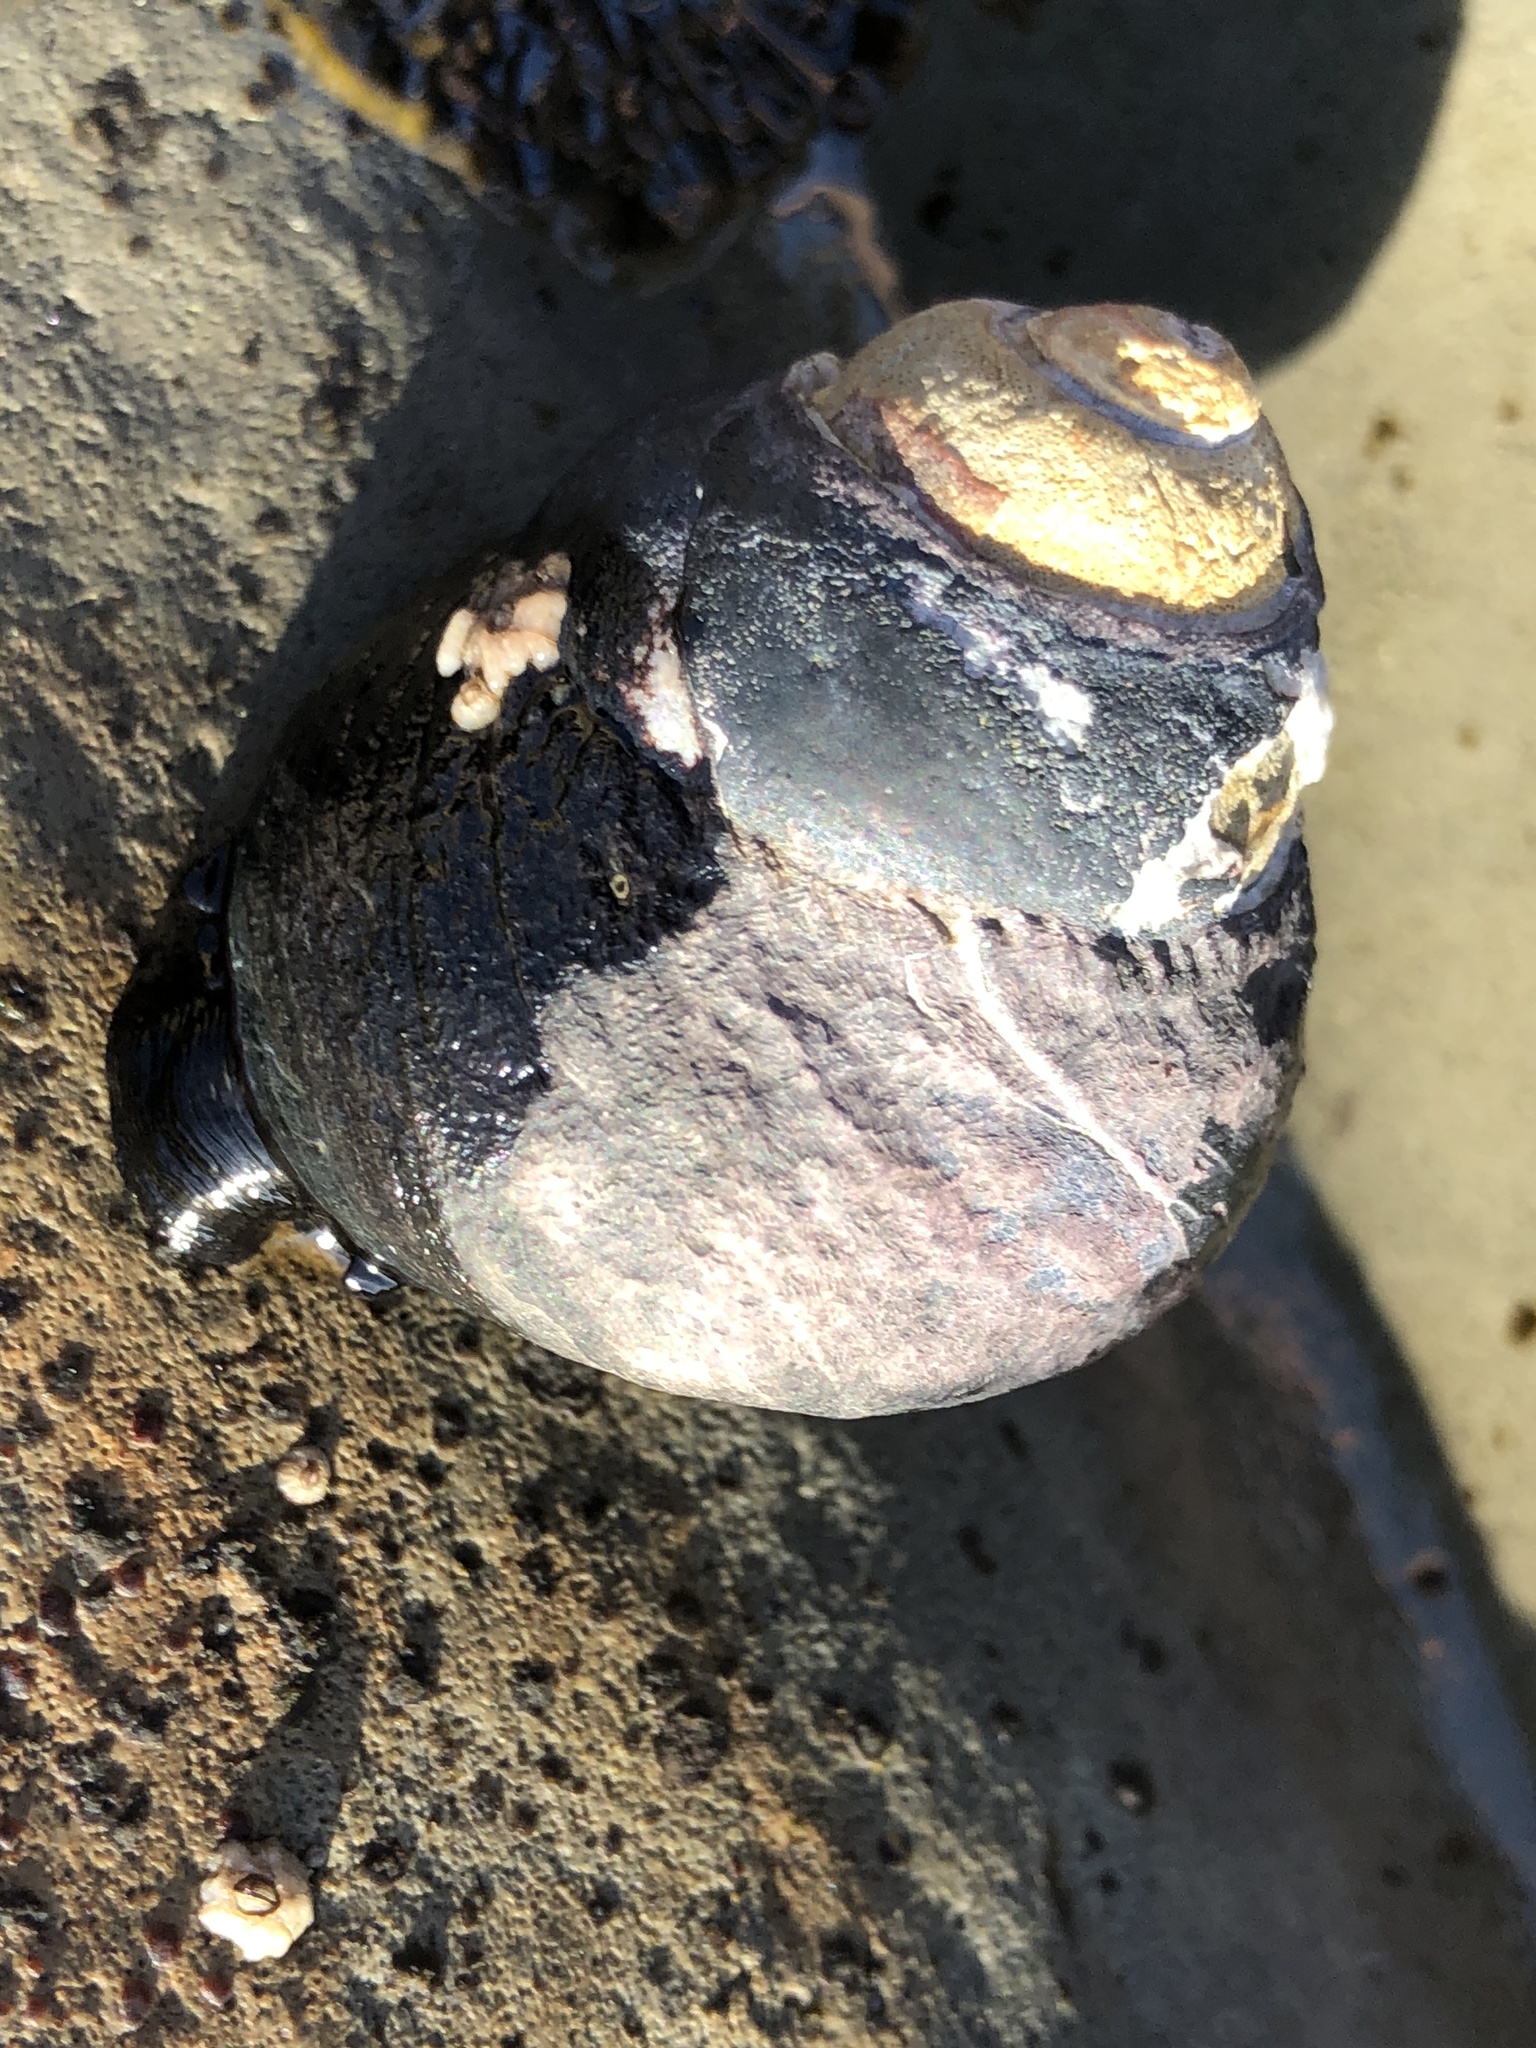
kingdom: Animalia
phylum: Mollusca
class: Gastropoda
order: Trochida
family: Tegulidae
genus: Tegula
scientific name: Tegula funebralis
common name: Black tegula
